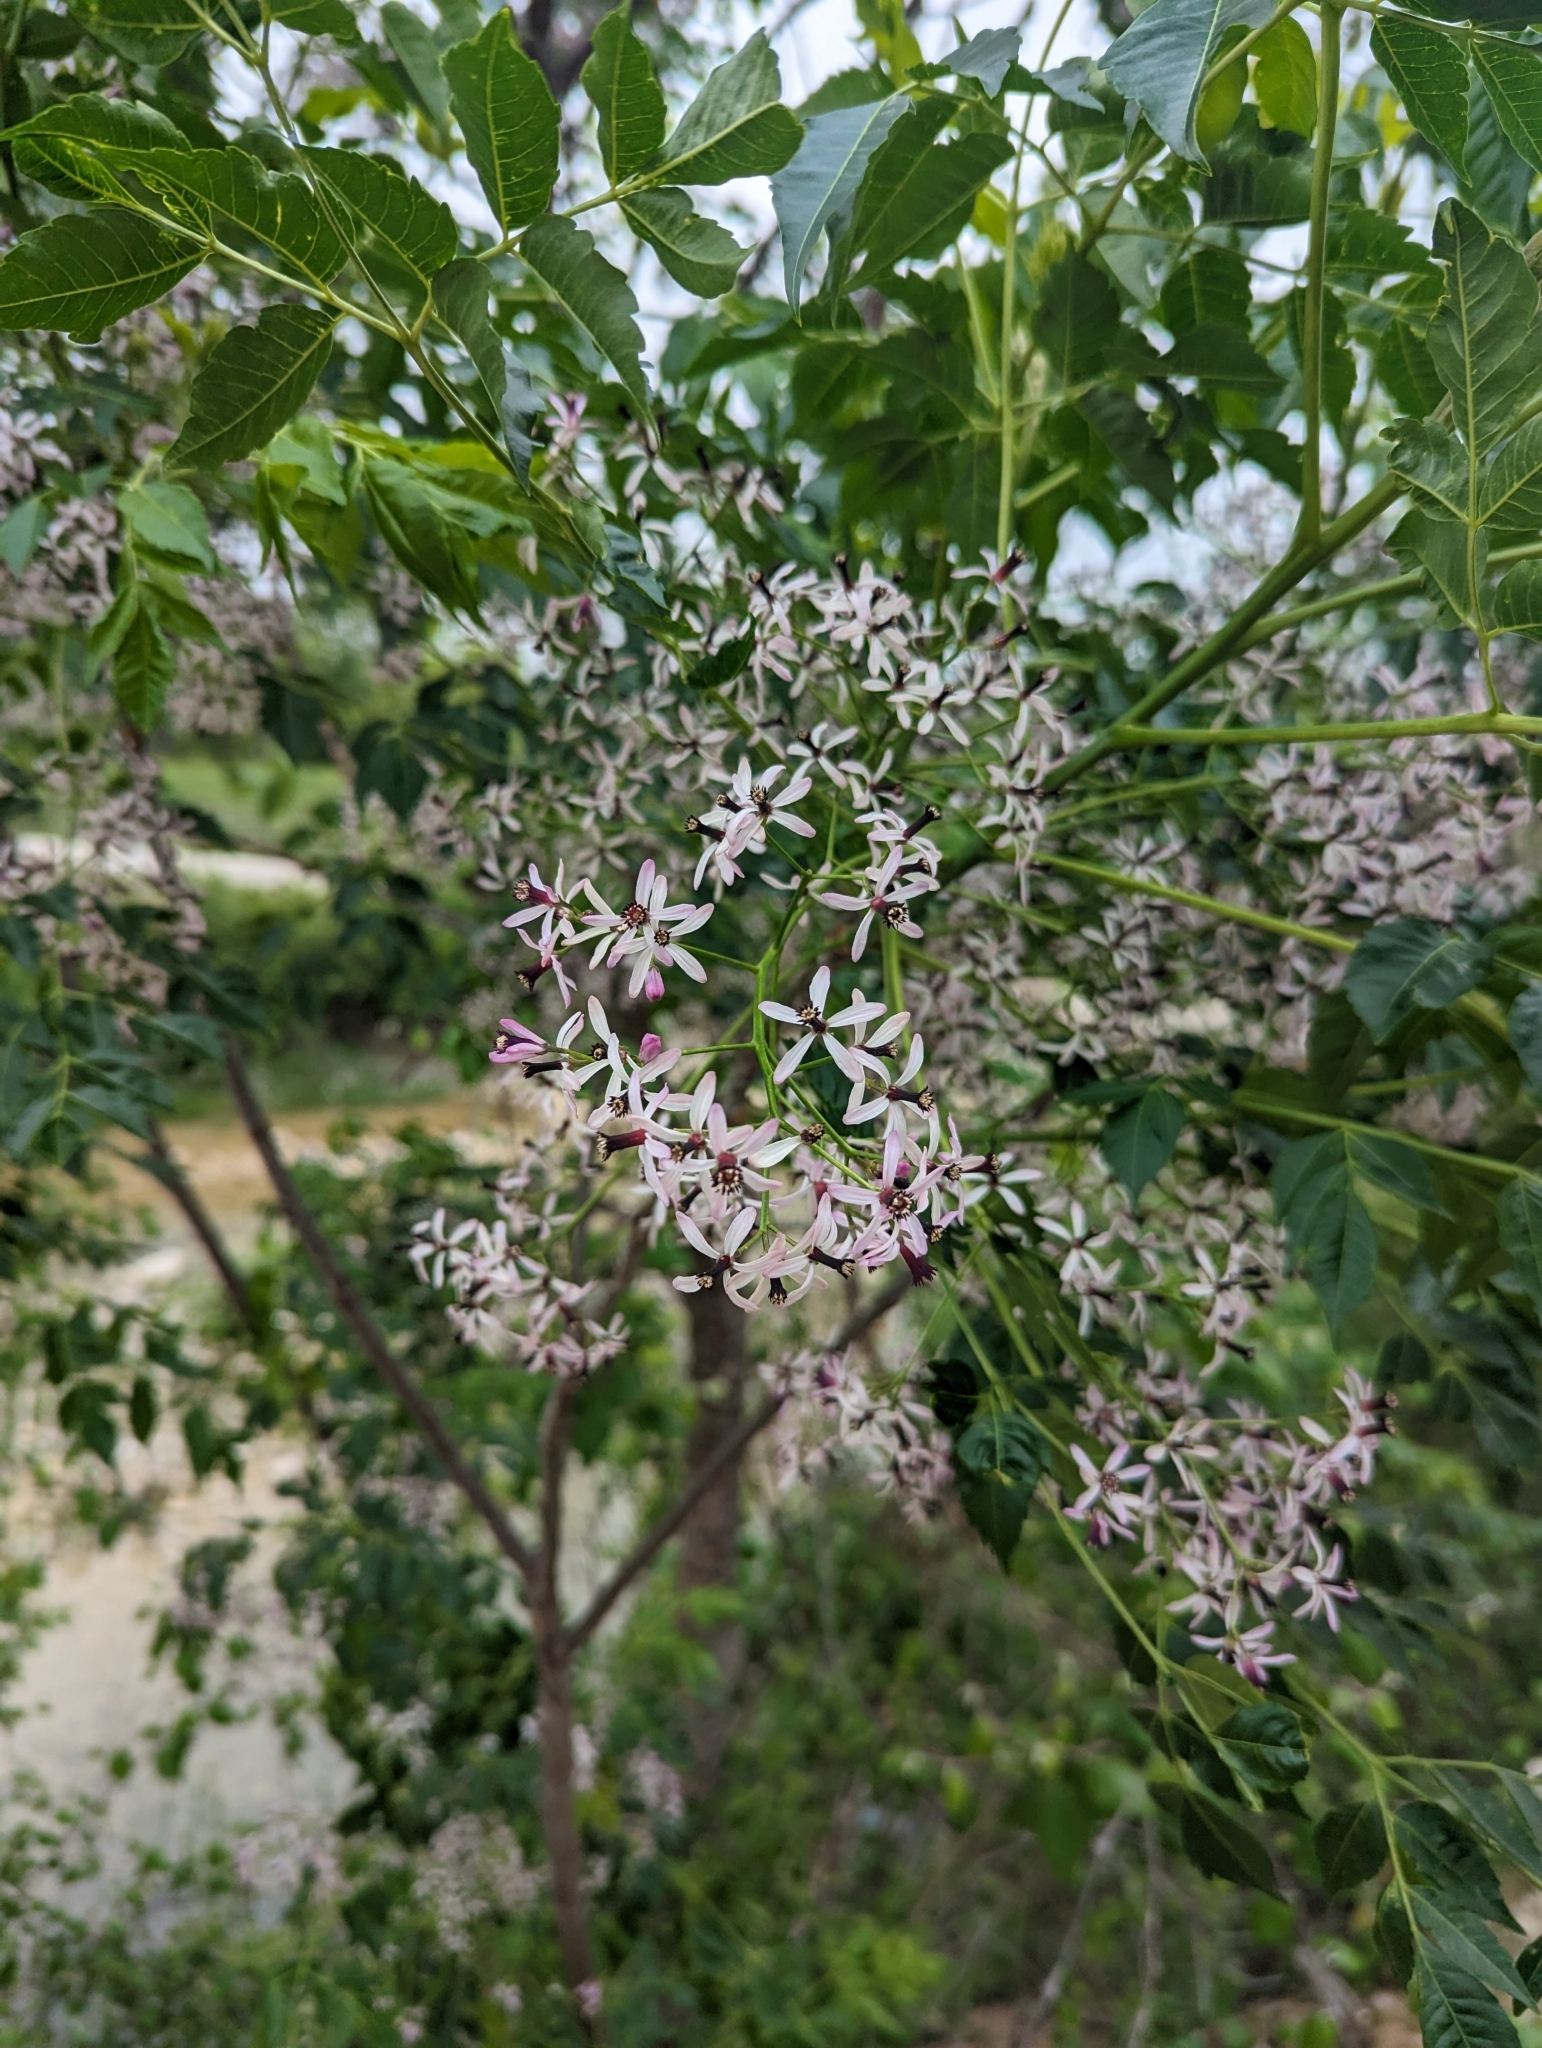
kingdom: Plantae
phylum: Tracheophyta
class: Magnoliopsida
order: Sapindales
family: Meliaceae
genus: Melia
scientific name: Melia azedarach
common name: Chinaberrytree
